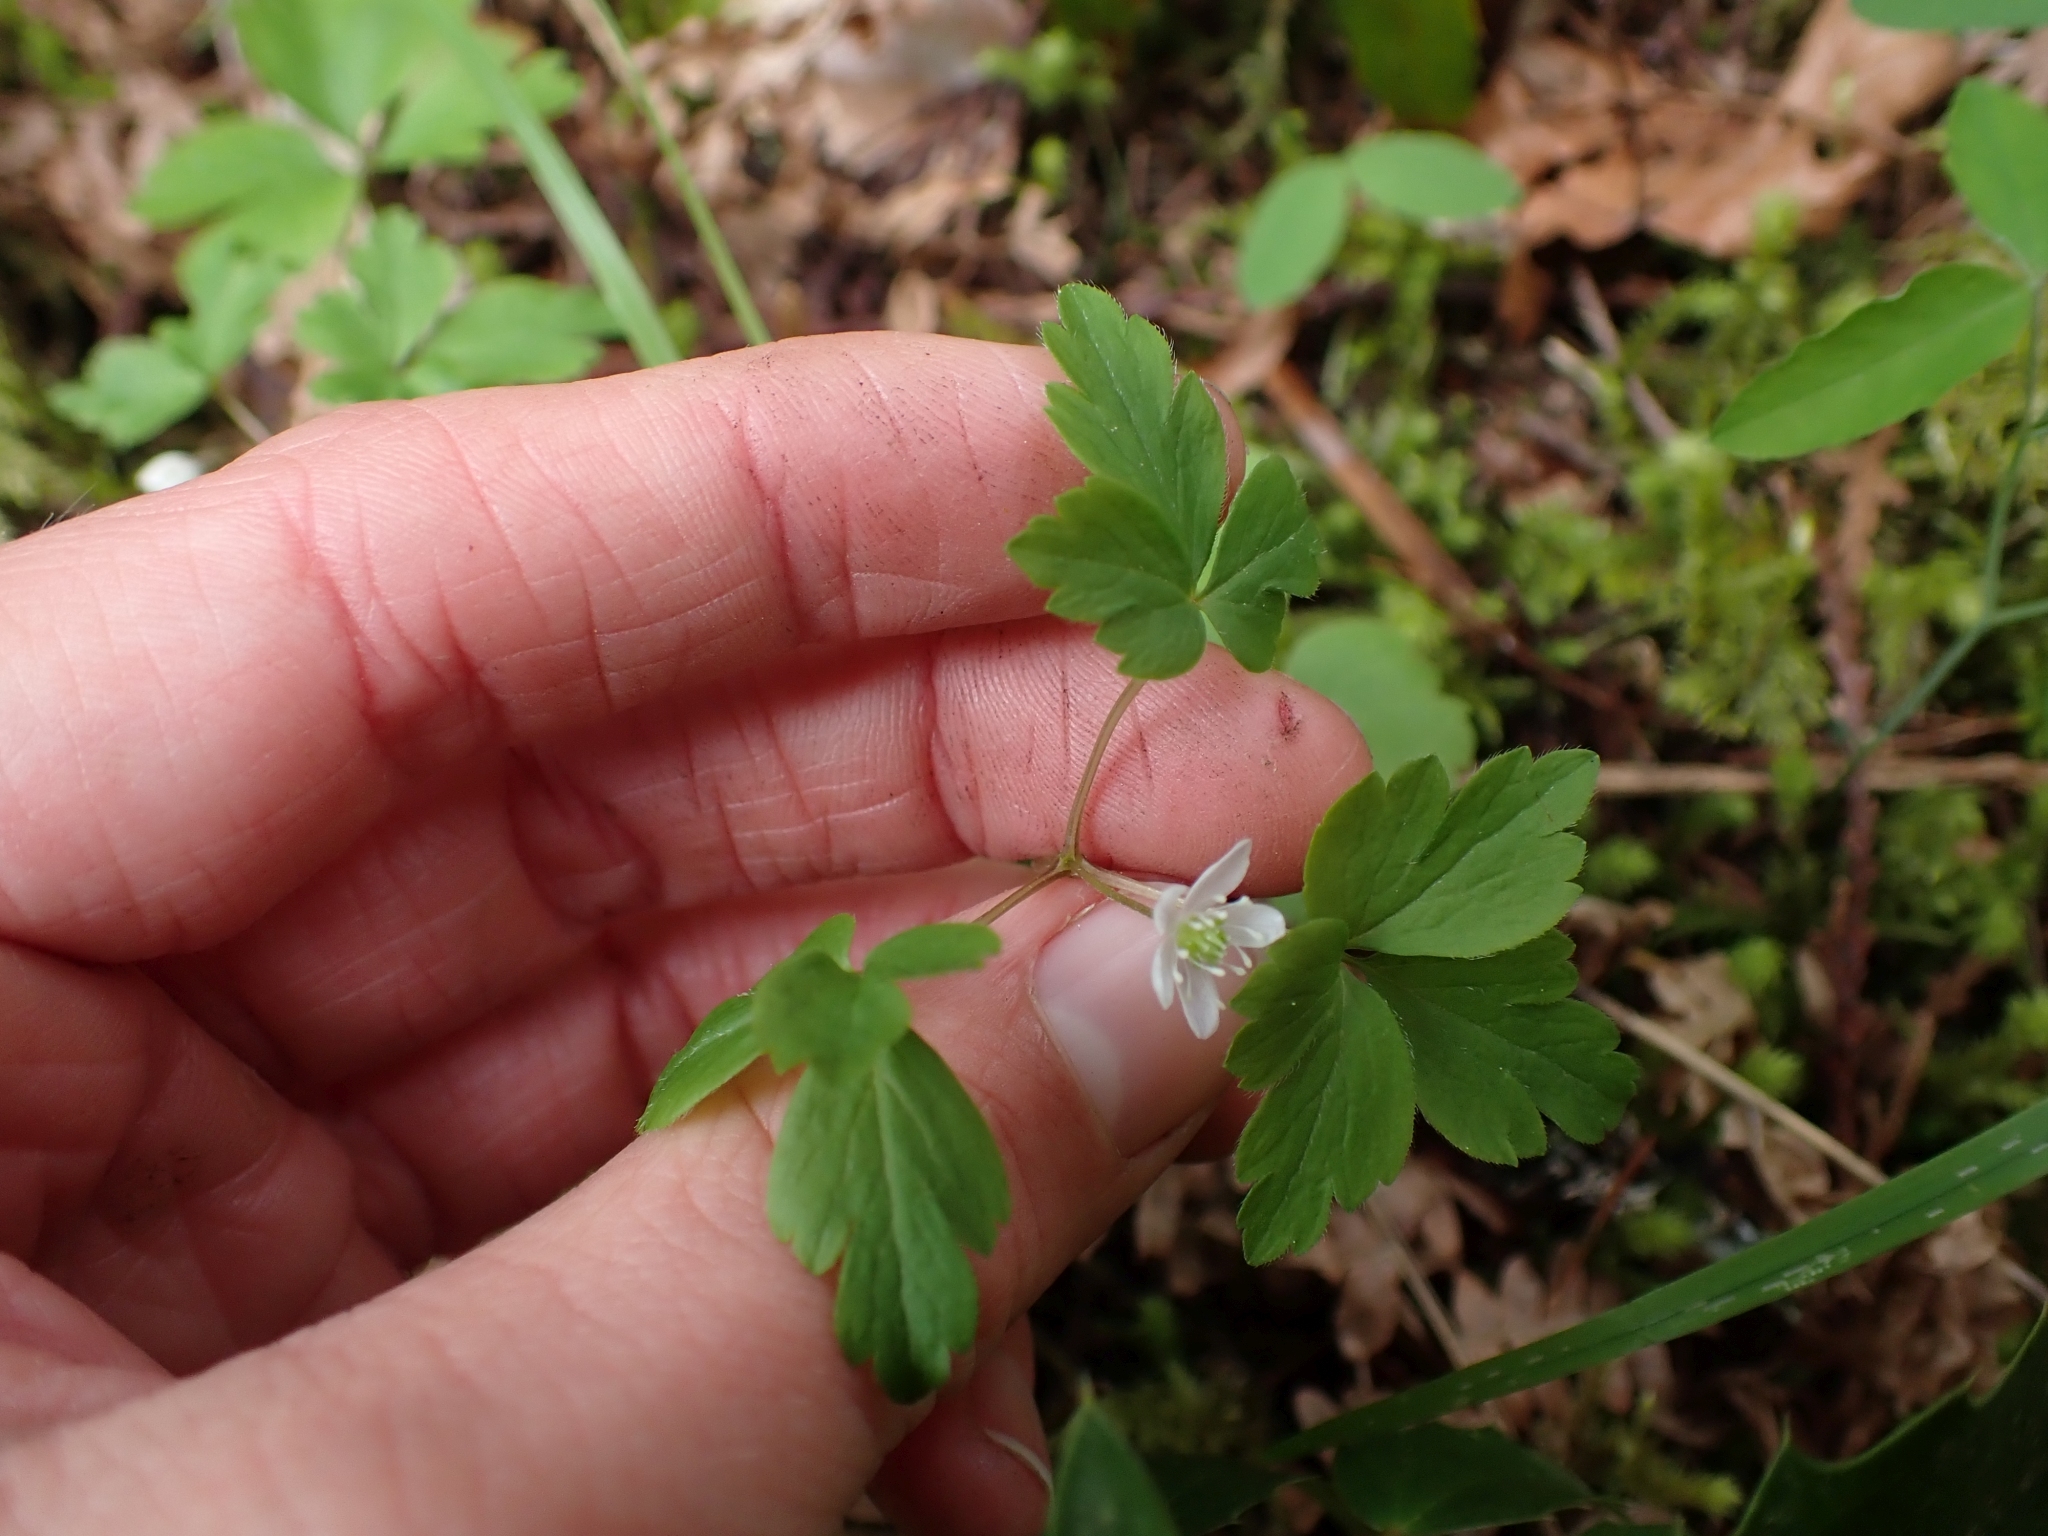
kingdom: Plantae
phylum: Tracheophyta
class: Magnoliopsida
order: Ranunculales
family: Ranunculaceae
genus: Anemone
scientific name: Anemone
